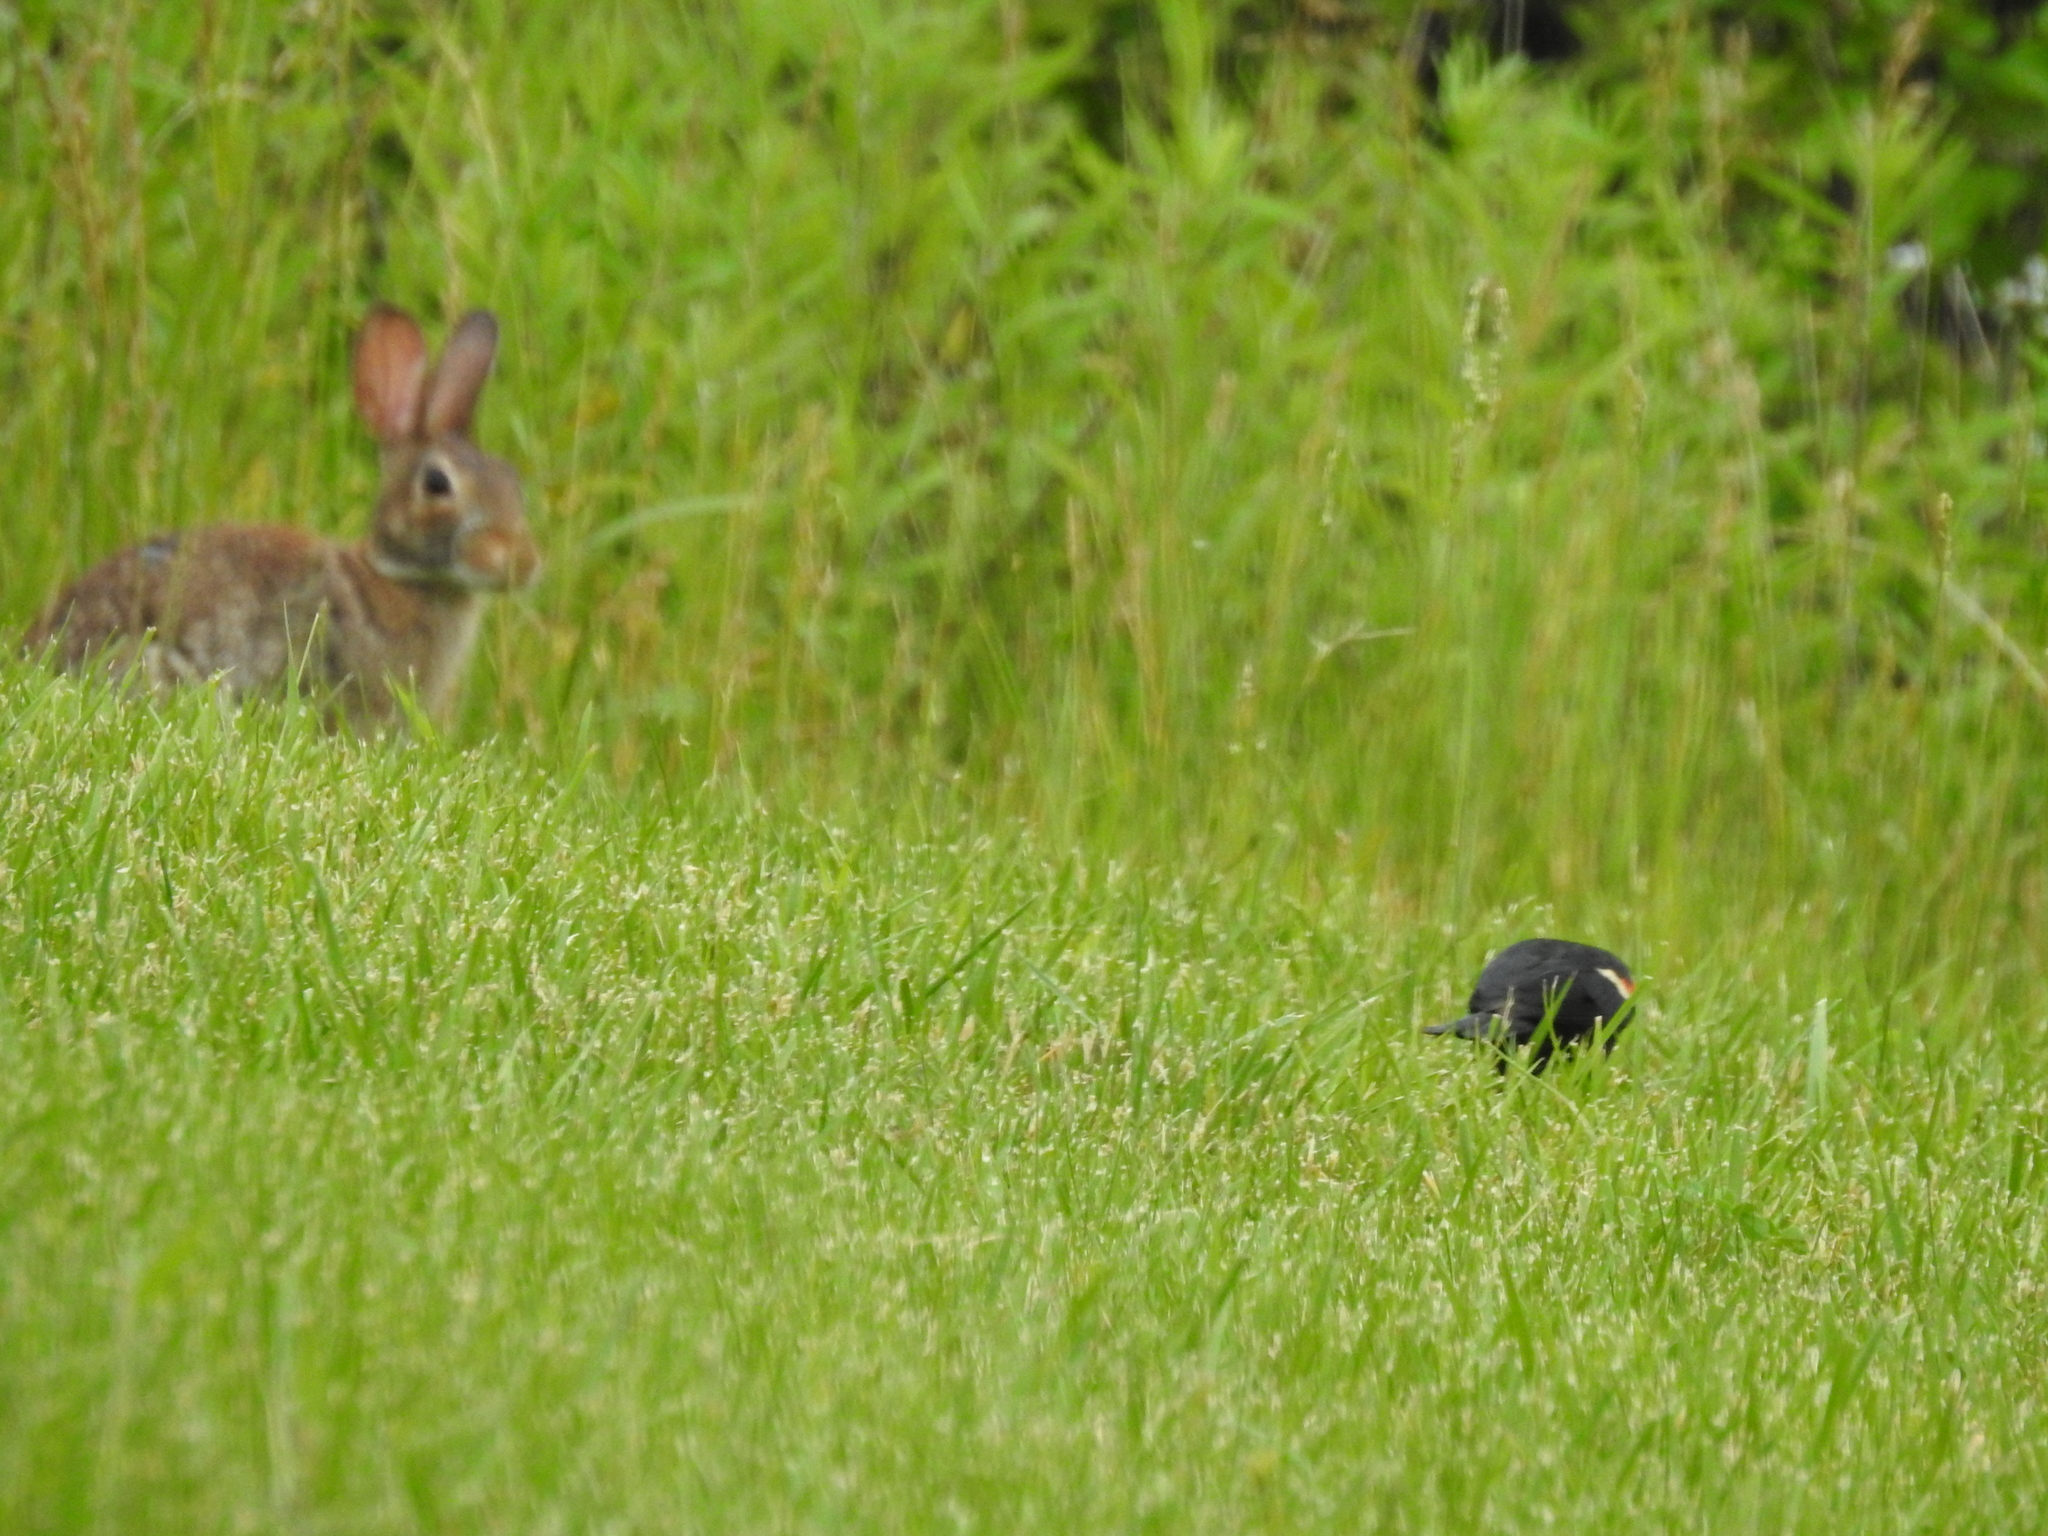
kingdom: Animalia
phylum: Chordata
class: Aves
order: Passeriformes
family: Icteridae
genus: Agelaius
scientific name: Agelaius phoeniceus
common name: Red-winged blackbird
